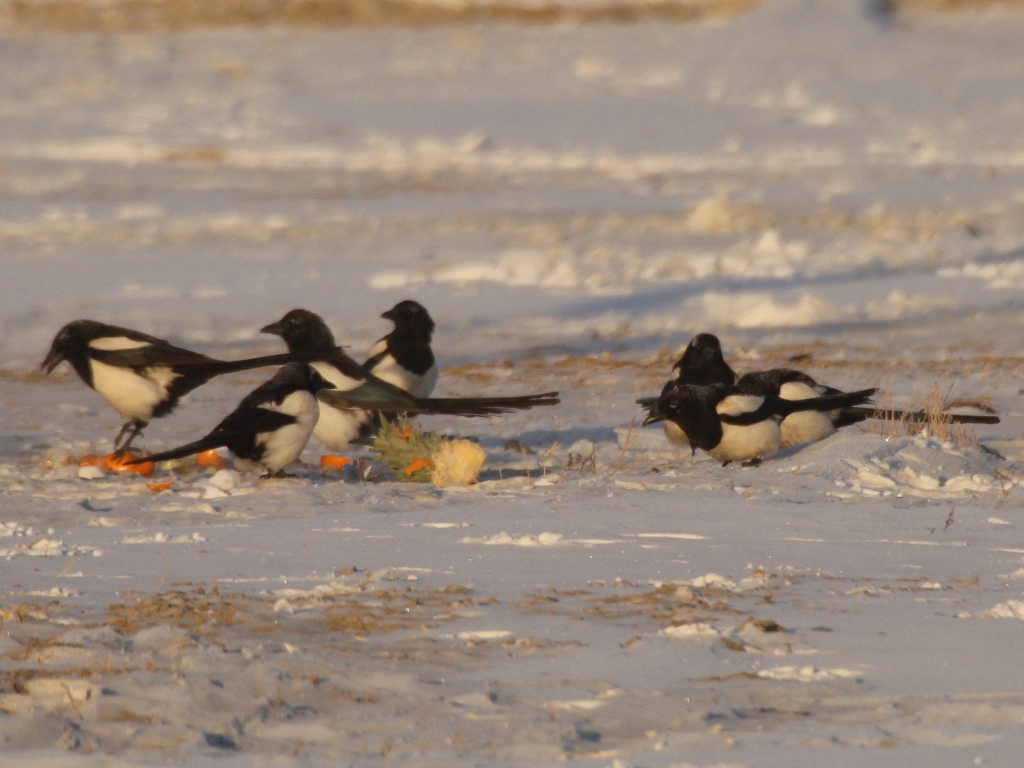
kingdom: Animalia
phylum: Chordata
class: Aves
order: Passeriformes
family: Corvidae
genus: Pica
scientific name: Pica pica
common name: Eurasian magpie
